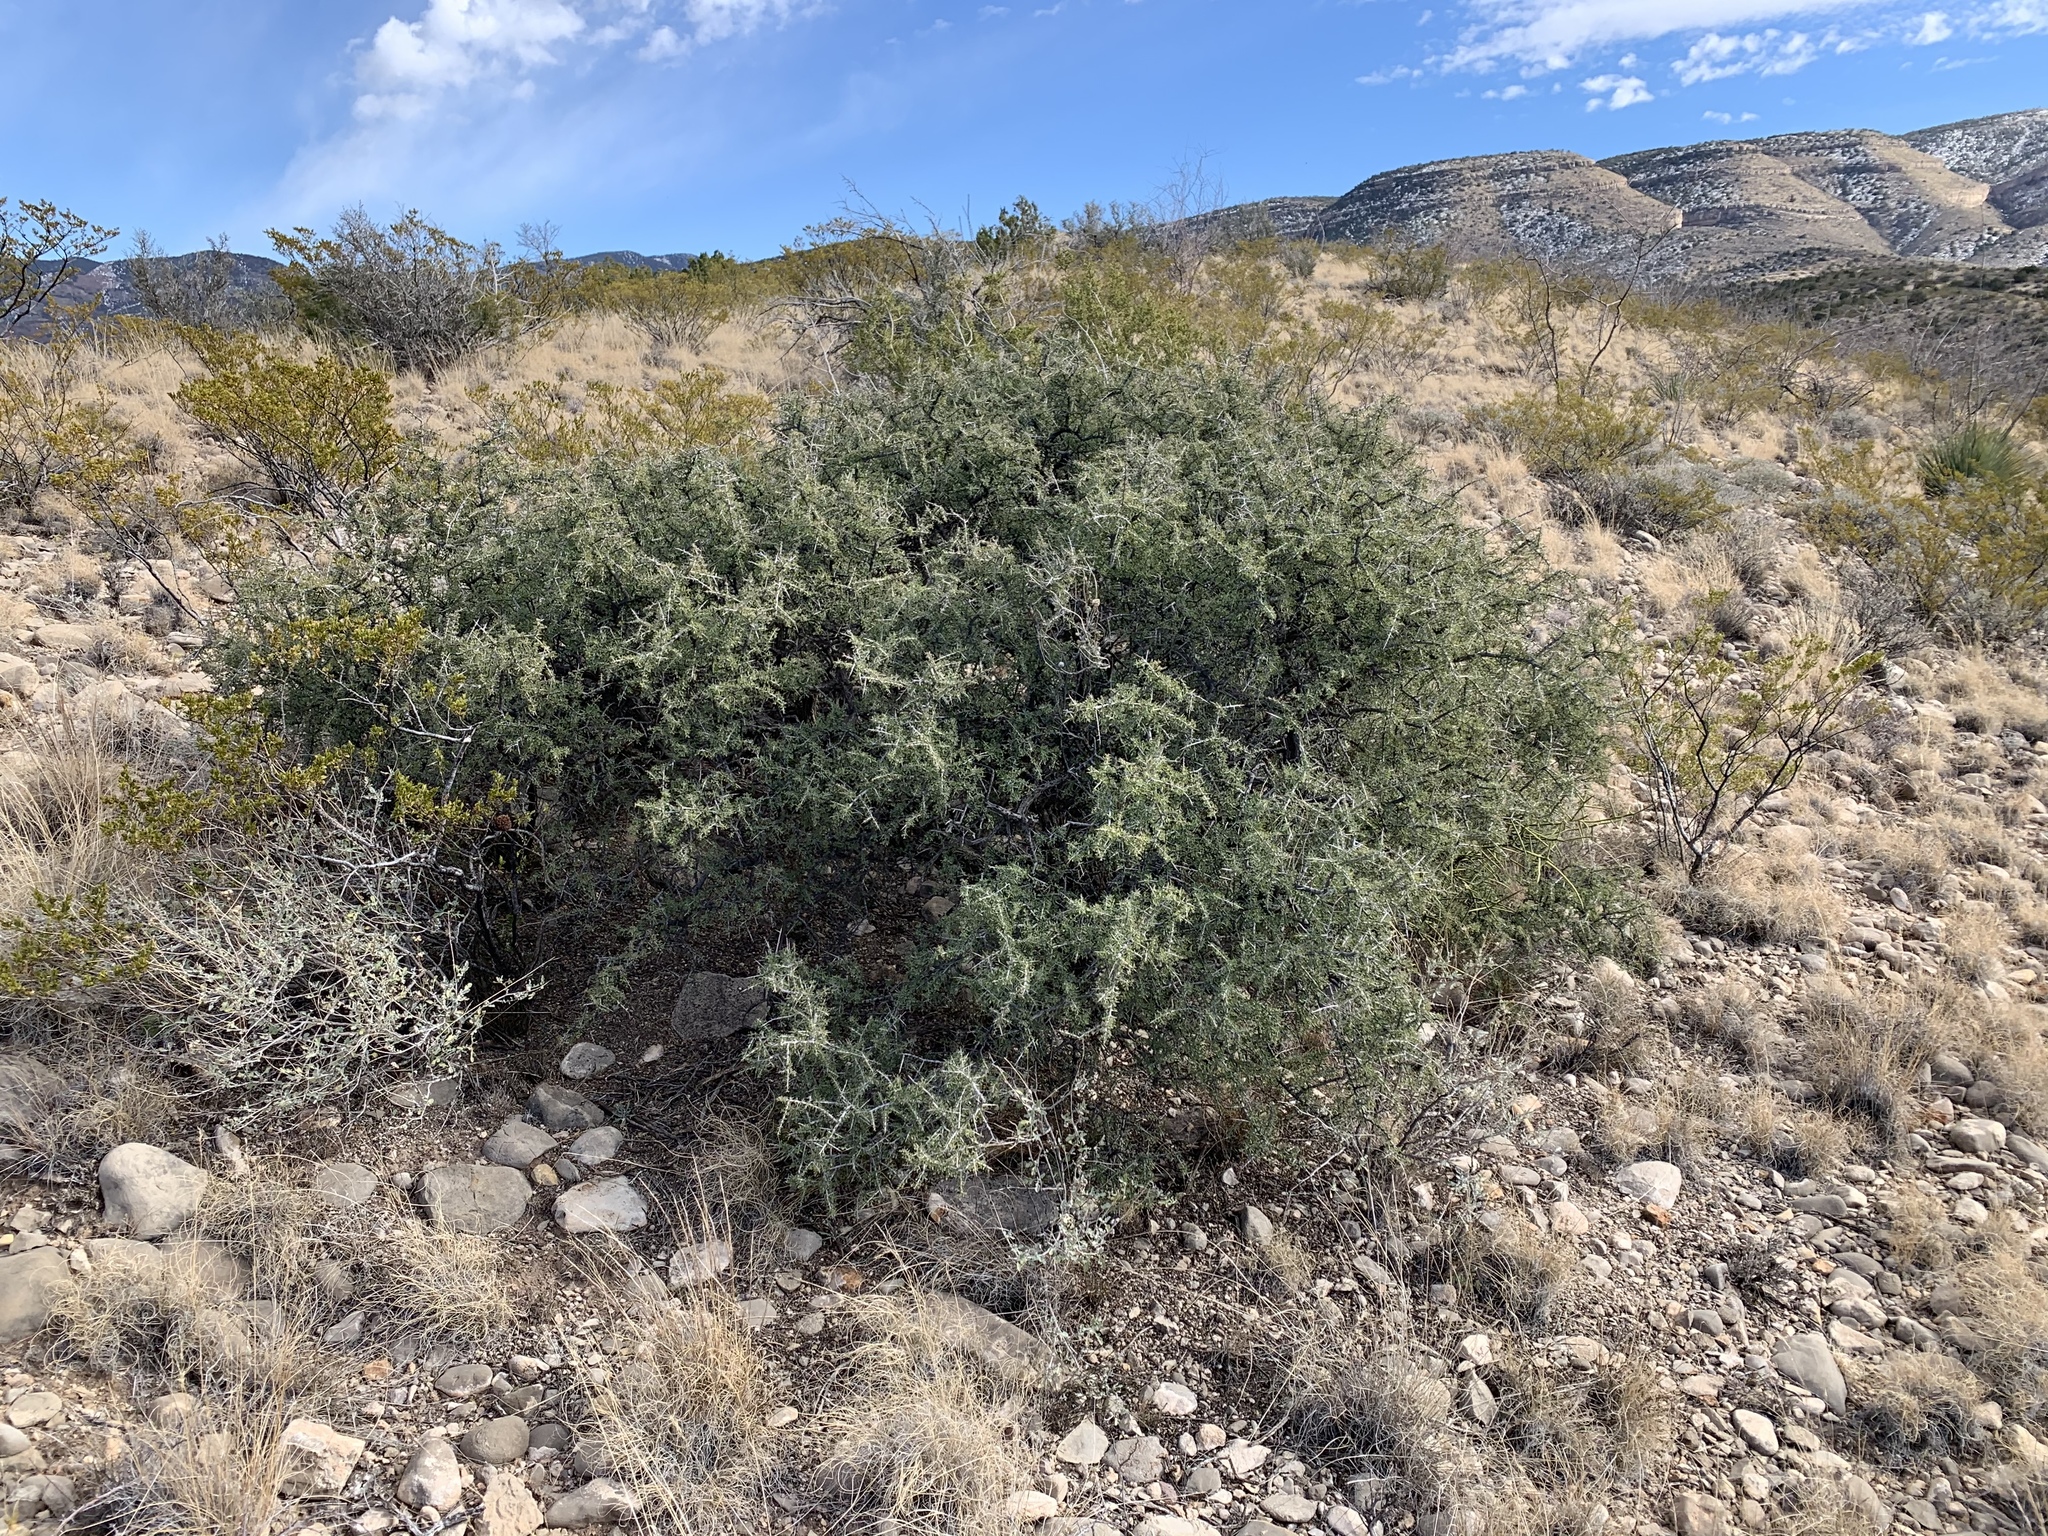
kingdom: Plantae
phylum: Tracheophyta
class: Magnoliopsida
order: Rosales
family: Rhamnaceae
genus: Condalia
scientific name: Condalia warnockii
